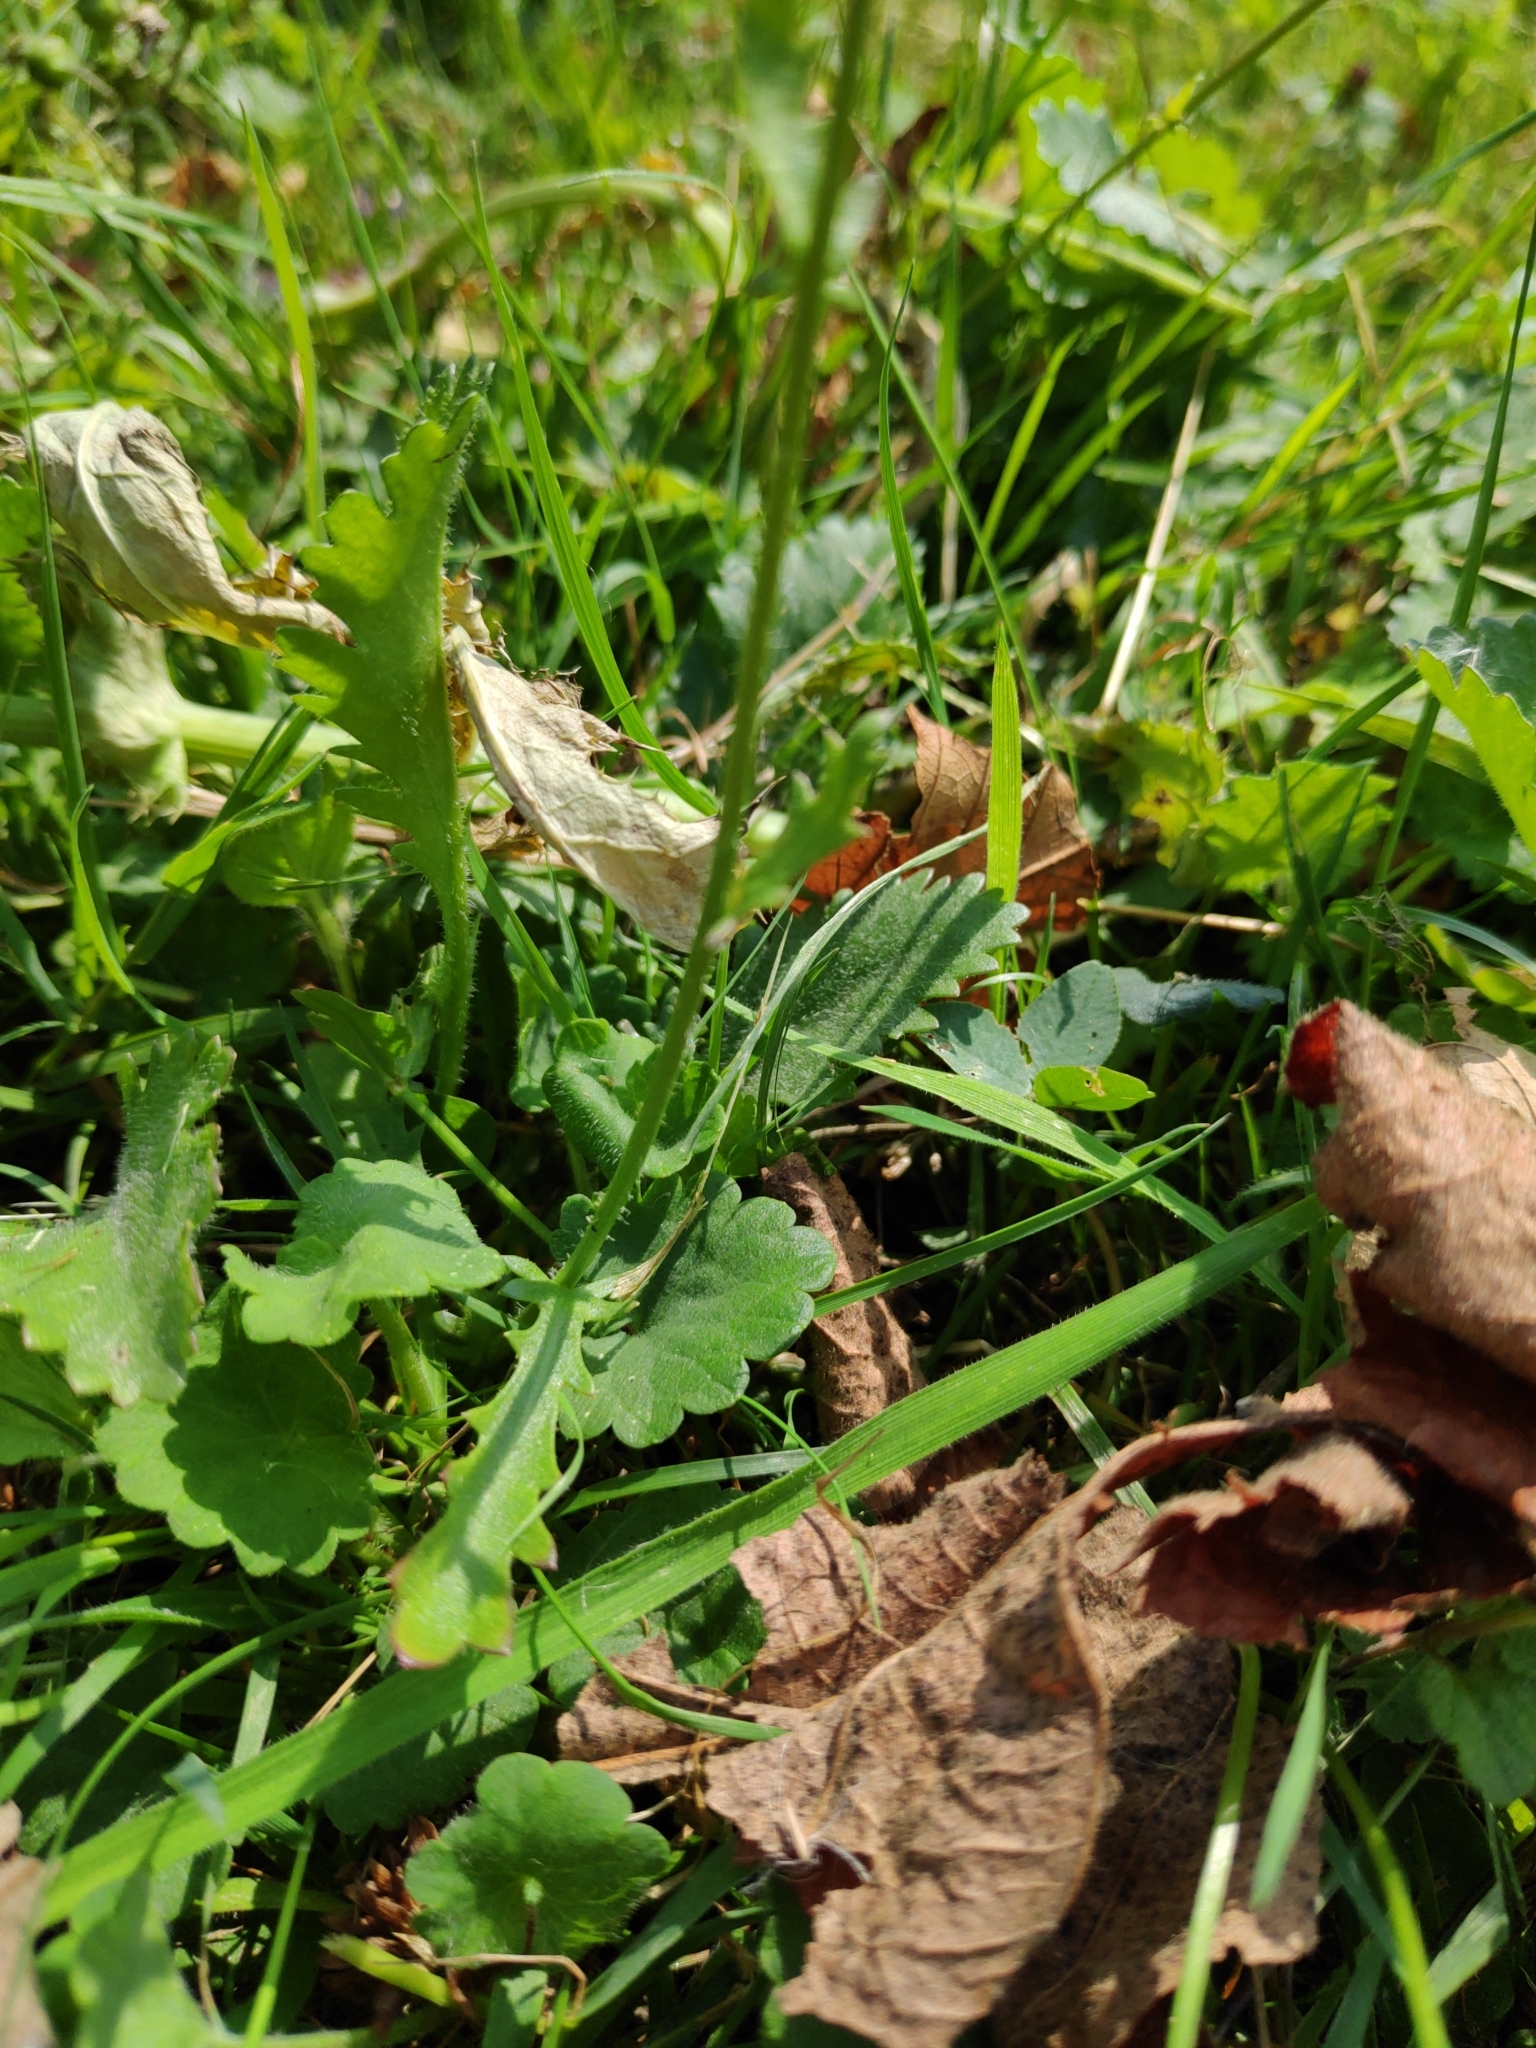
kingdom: Plantae
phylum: Tracheophyta
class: Magnoliopsida
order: Asterales
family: Asteraceae
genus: Leucanthemum
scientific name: Leucanthemum vulgare
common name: Oxeye daisy
